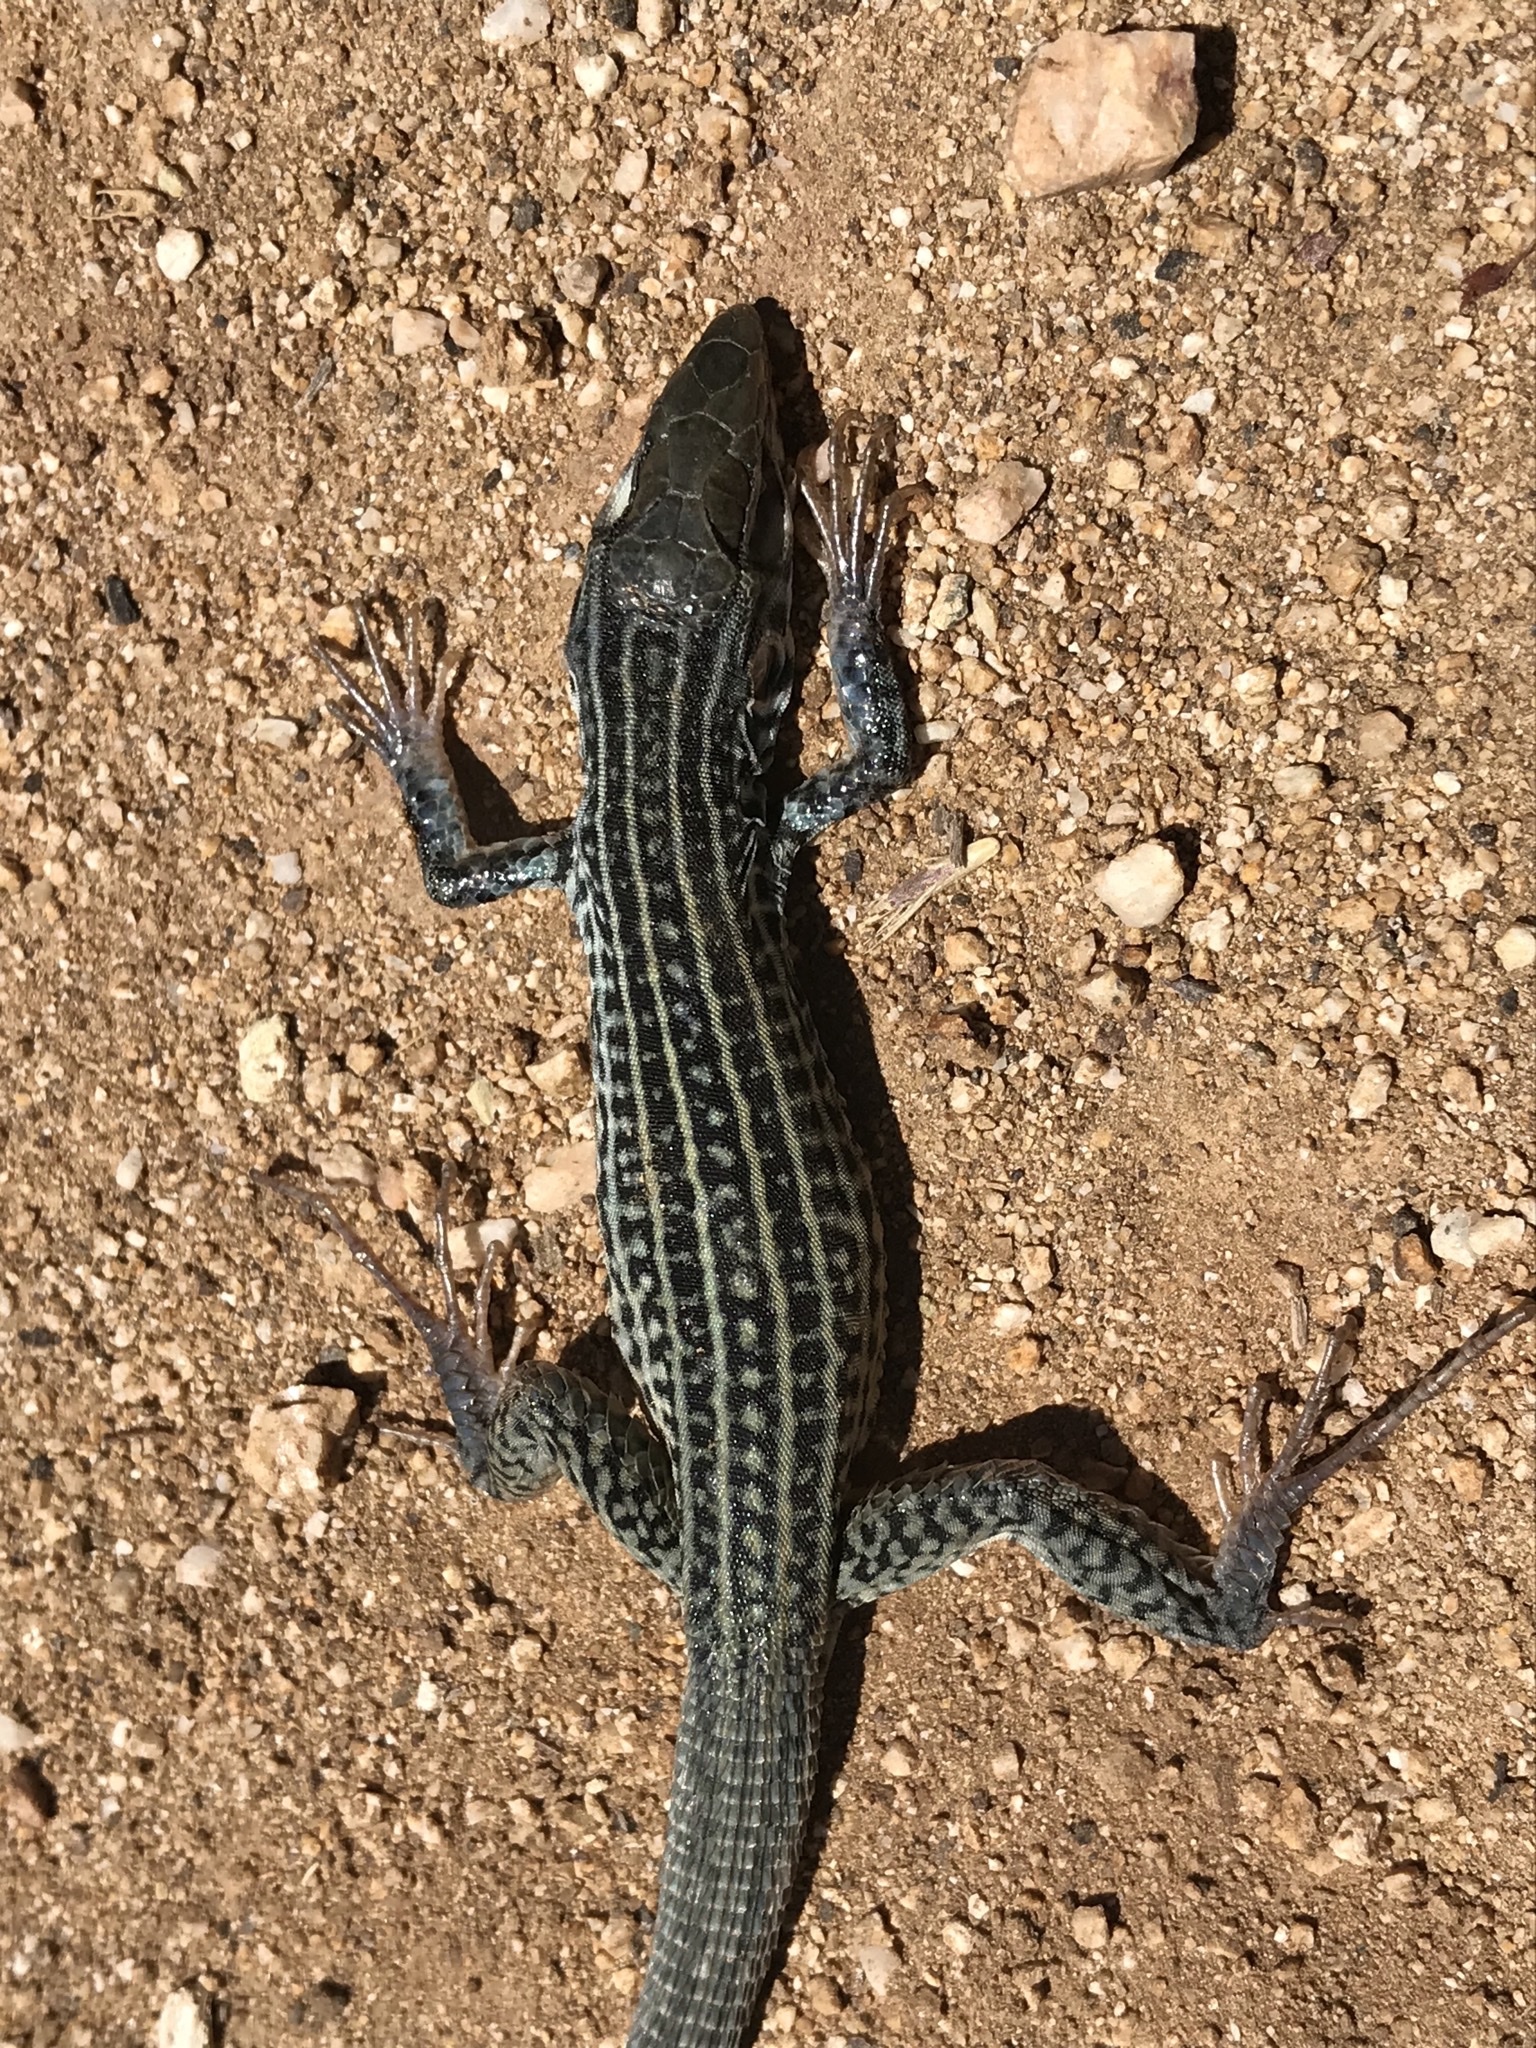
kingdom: Animalia
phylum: Chordata
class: Squamata
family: Teiidae
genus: Aspidoscelis
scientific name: Aspidoscelis tigris
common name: Tiger whiptail
